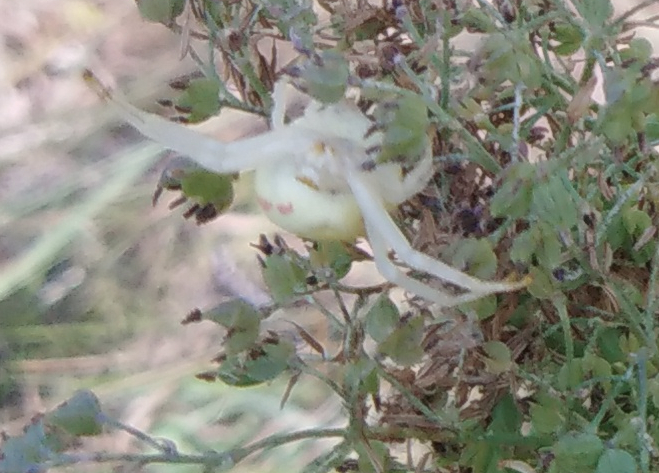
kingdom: Animalia
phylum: Arthropoda
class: Arachnida
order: Araneae
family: Thomisidae
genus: Misumena
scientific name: Misumena vatia
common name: Goldenrod crab spider
